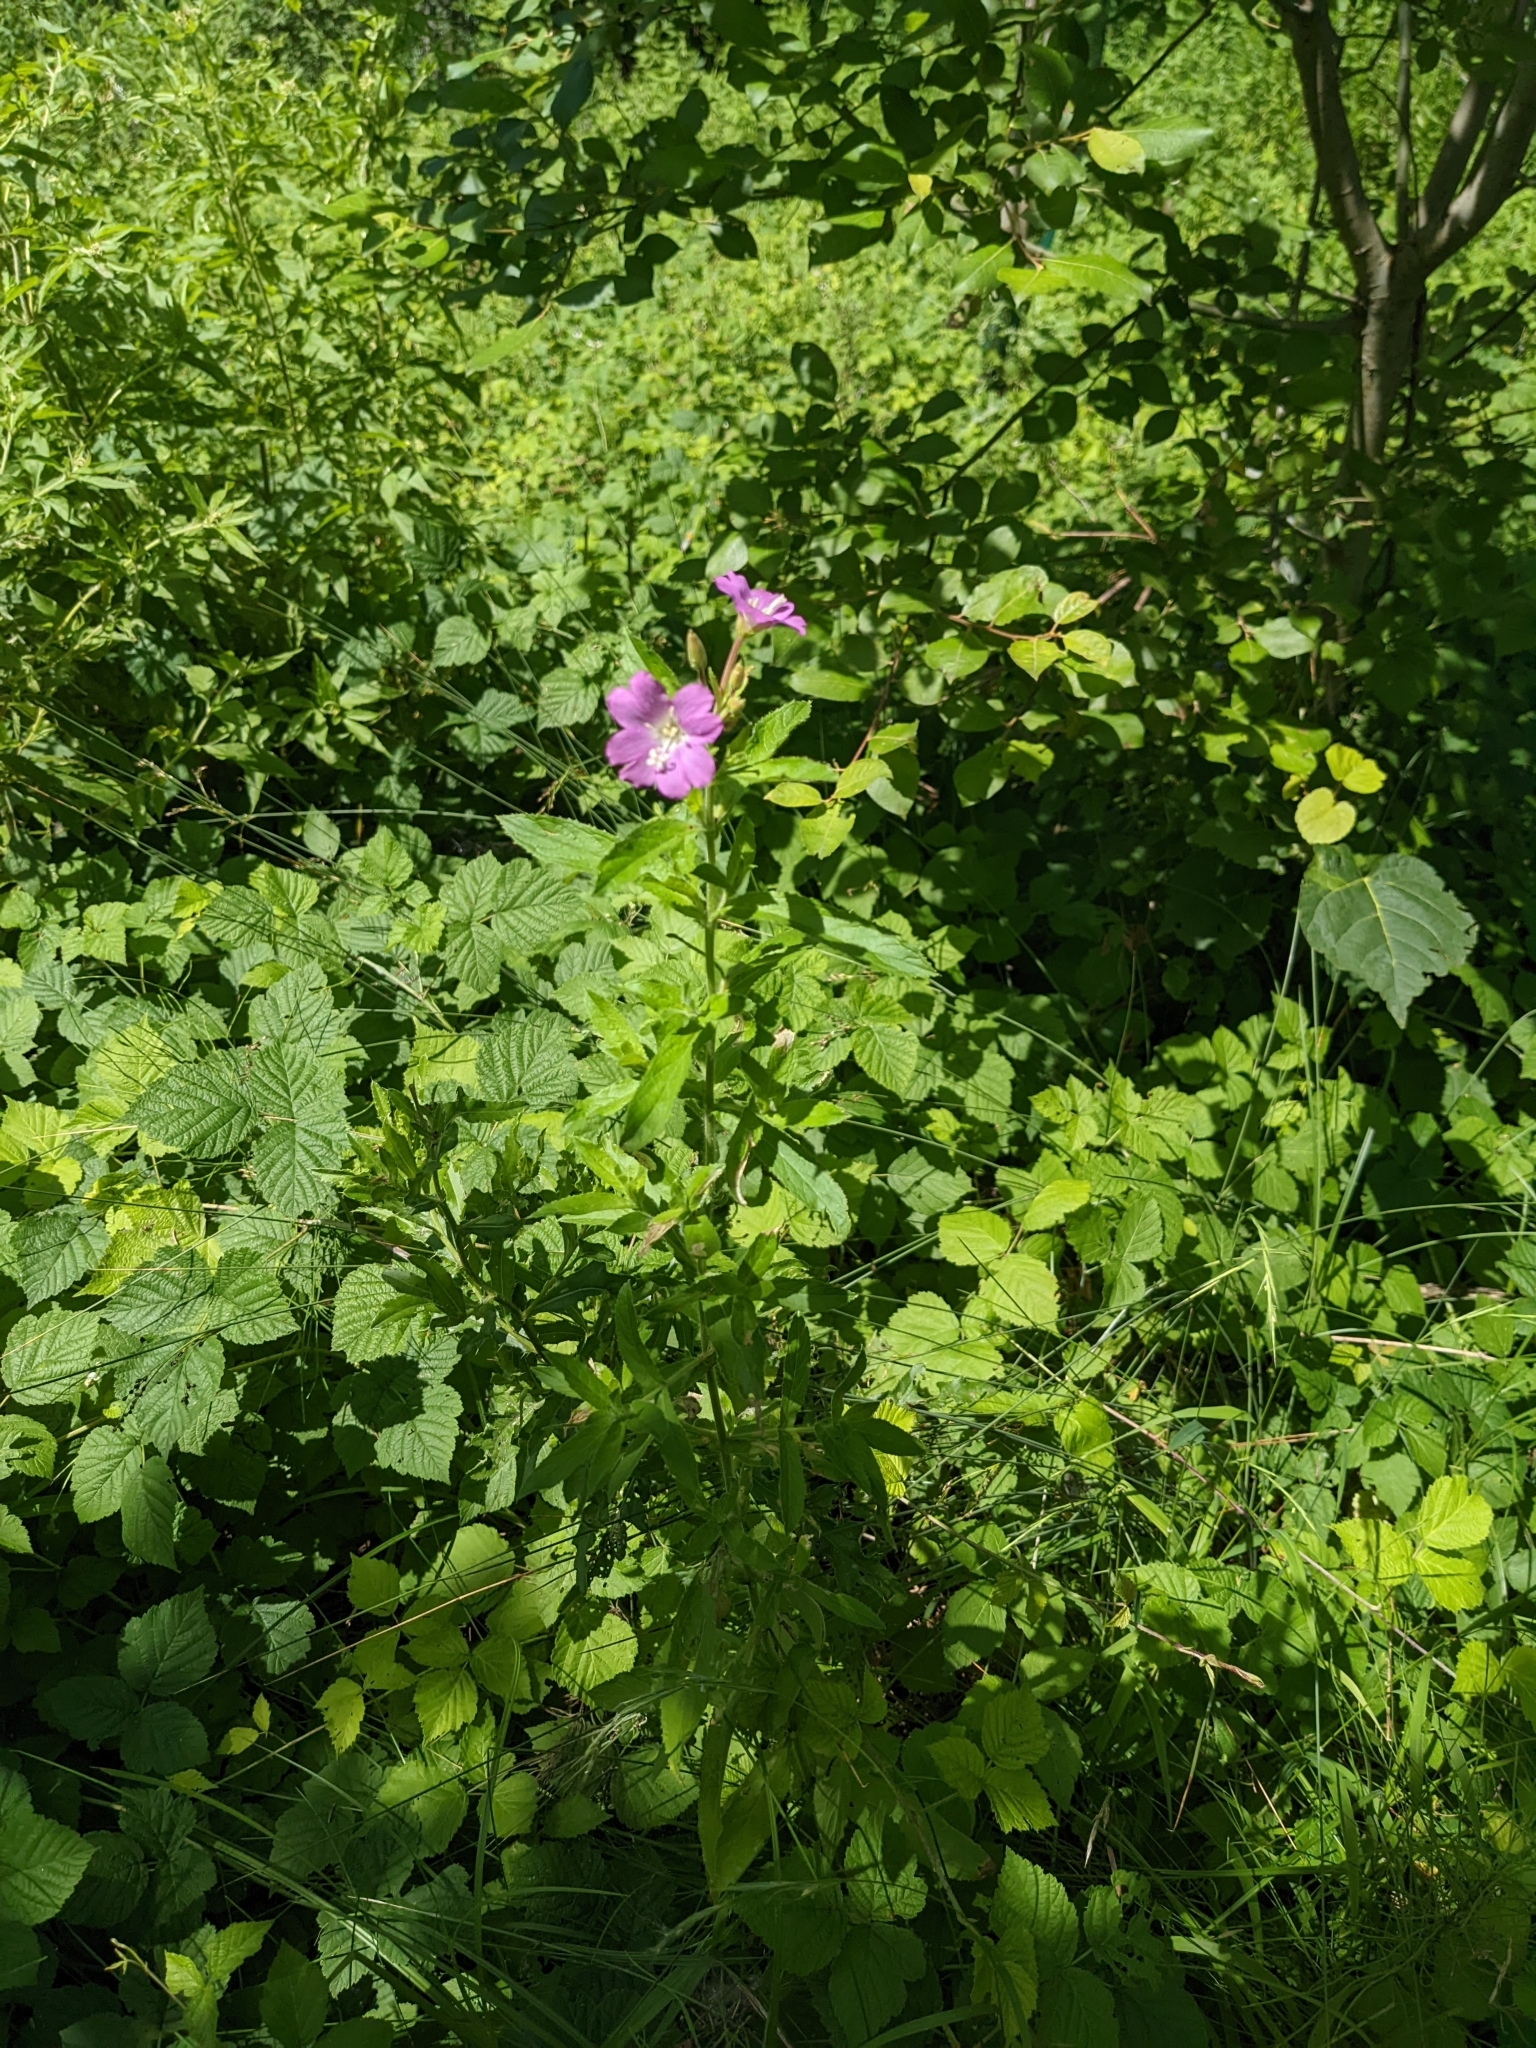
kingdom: Plantae
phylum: Tracheophyta
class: Magnoliopsida
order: Myrtales
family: Onagraceae
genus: Epilobium
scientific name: Epilobium hirsutum
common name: Great willowherb
